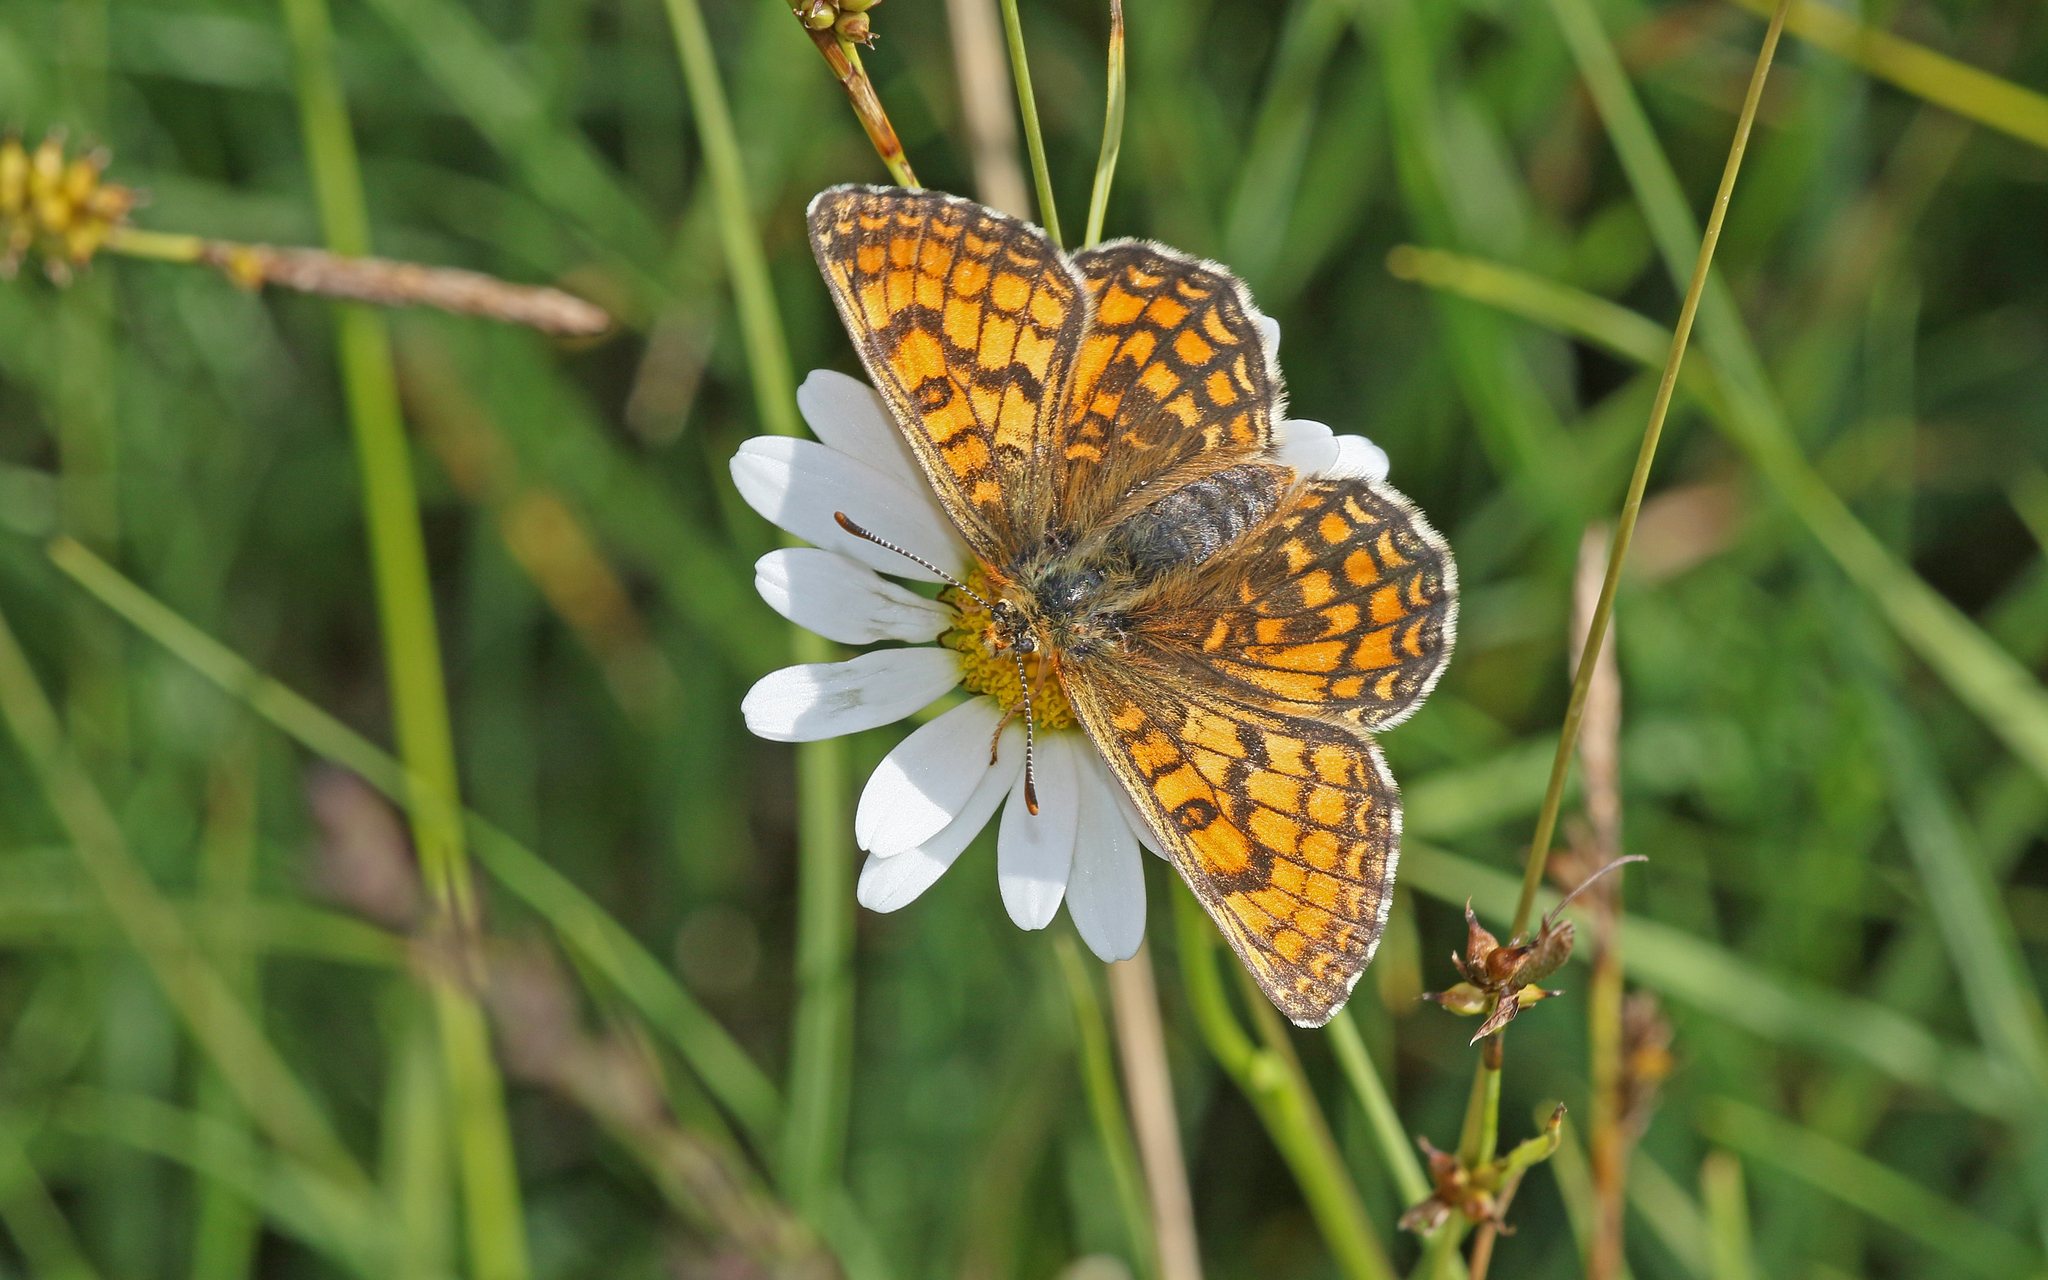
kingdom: Animalia
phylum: Arthropoda
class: Insecta
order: Lepidoptera
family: Nymphalidae
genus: Mellicta
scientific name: Mellicta parthenoides
